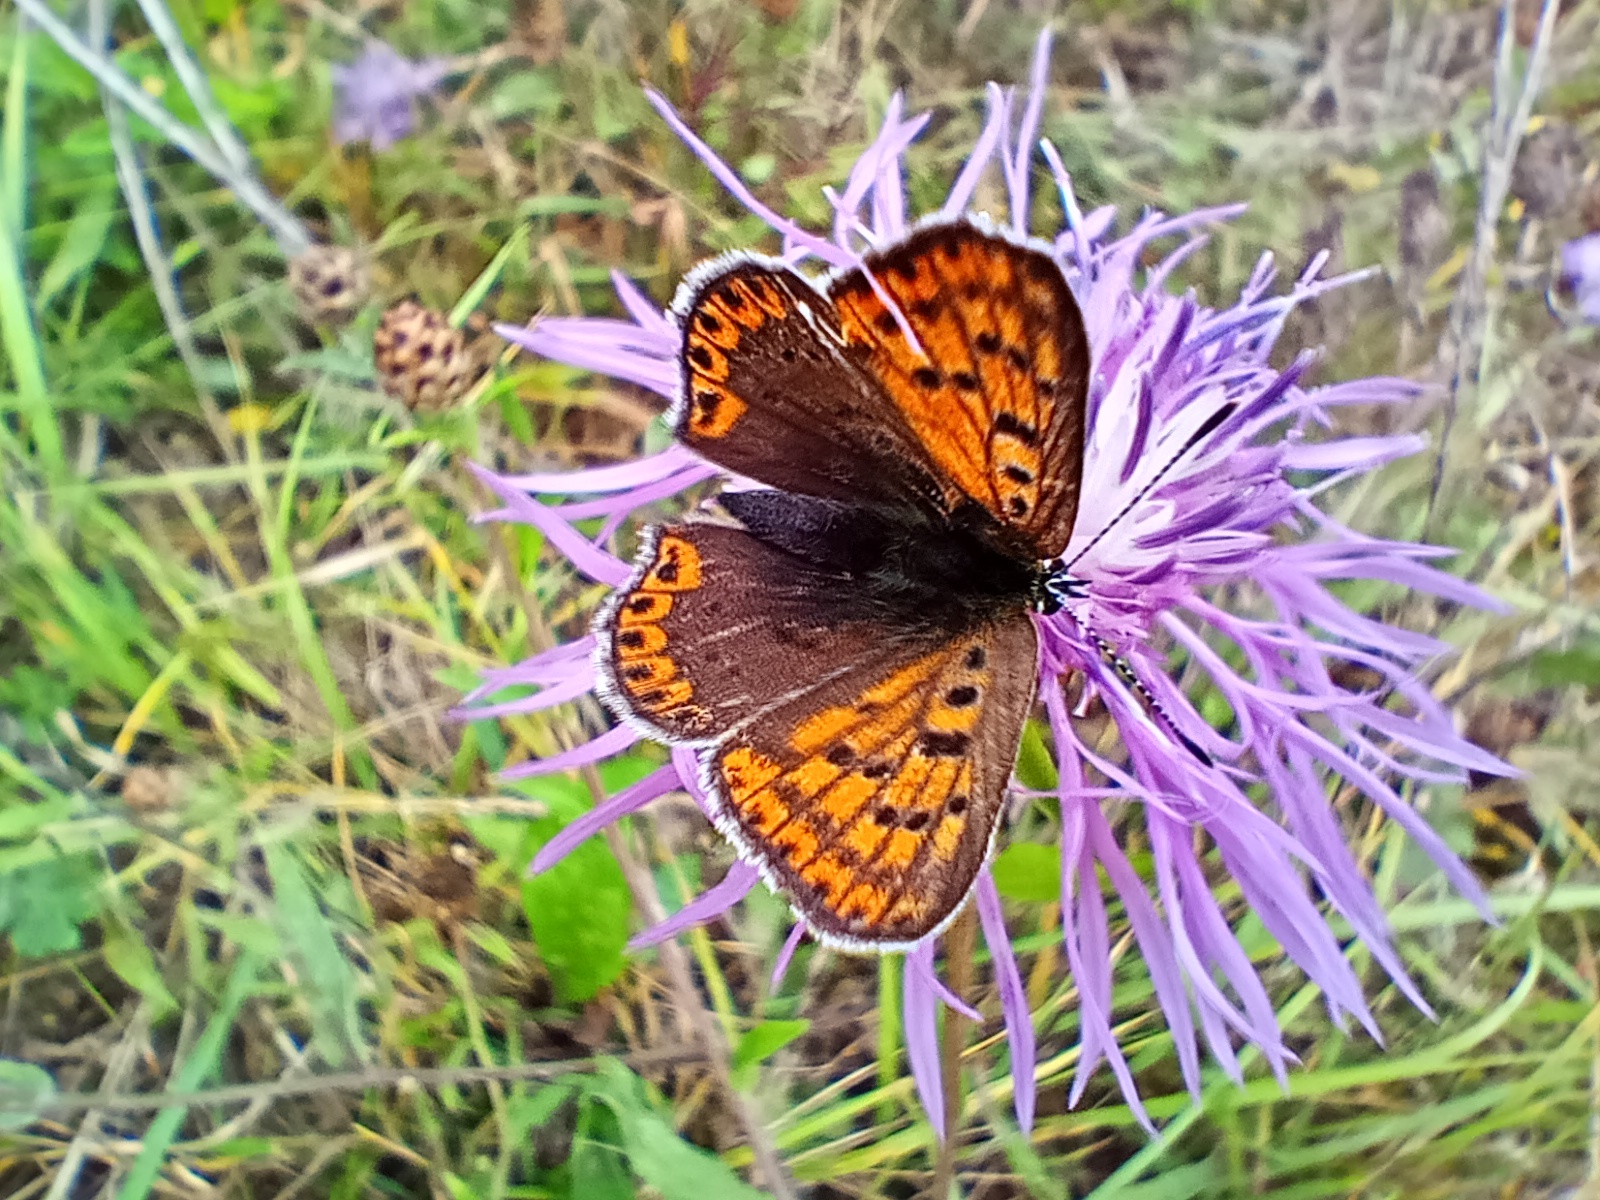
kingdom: Animalia
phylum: Arthropoda
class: Insecta
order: Lepidoptera
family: Lycaenidae
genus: Loweia
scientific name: Loweia tityrus
